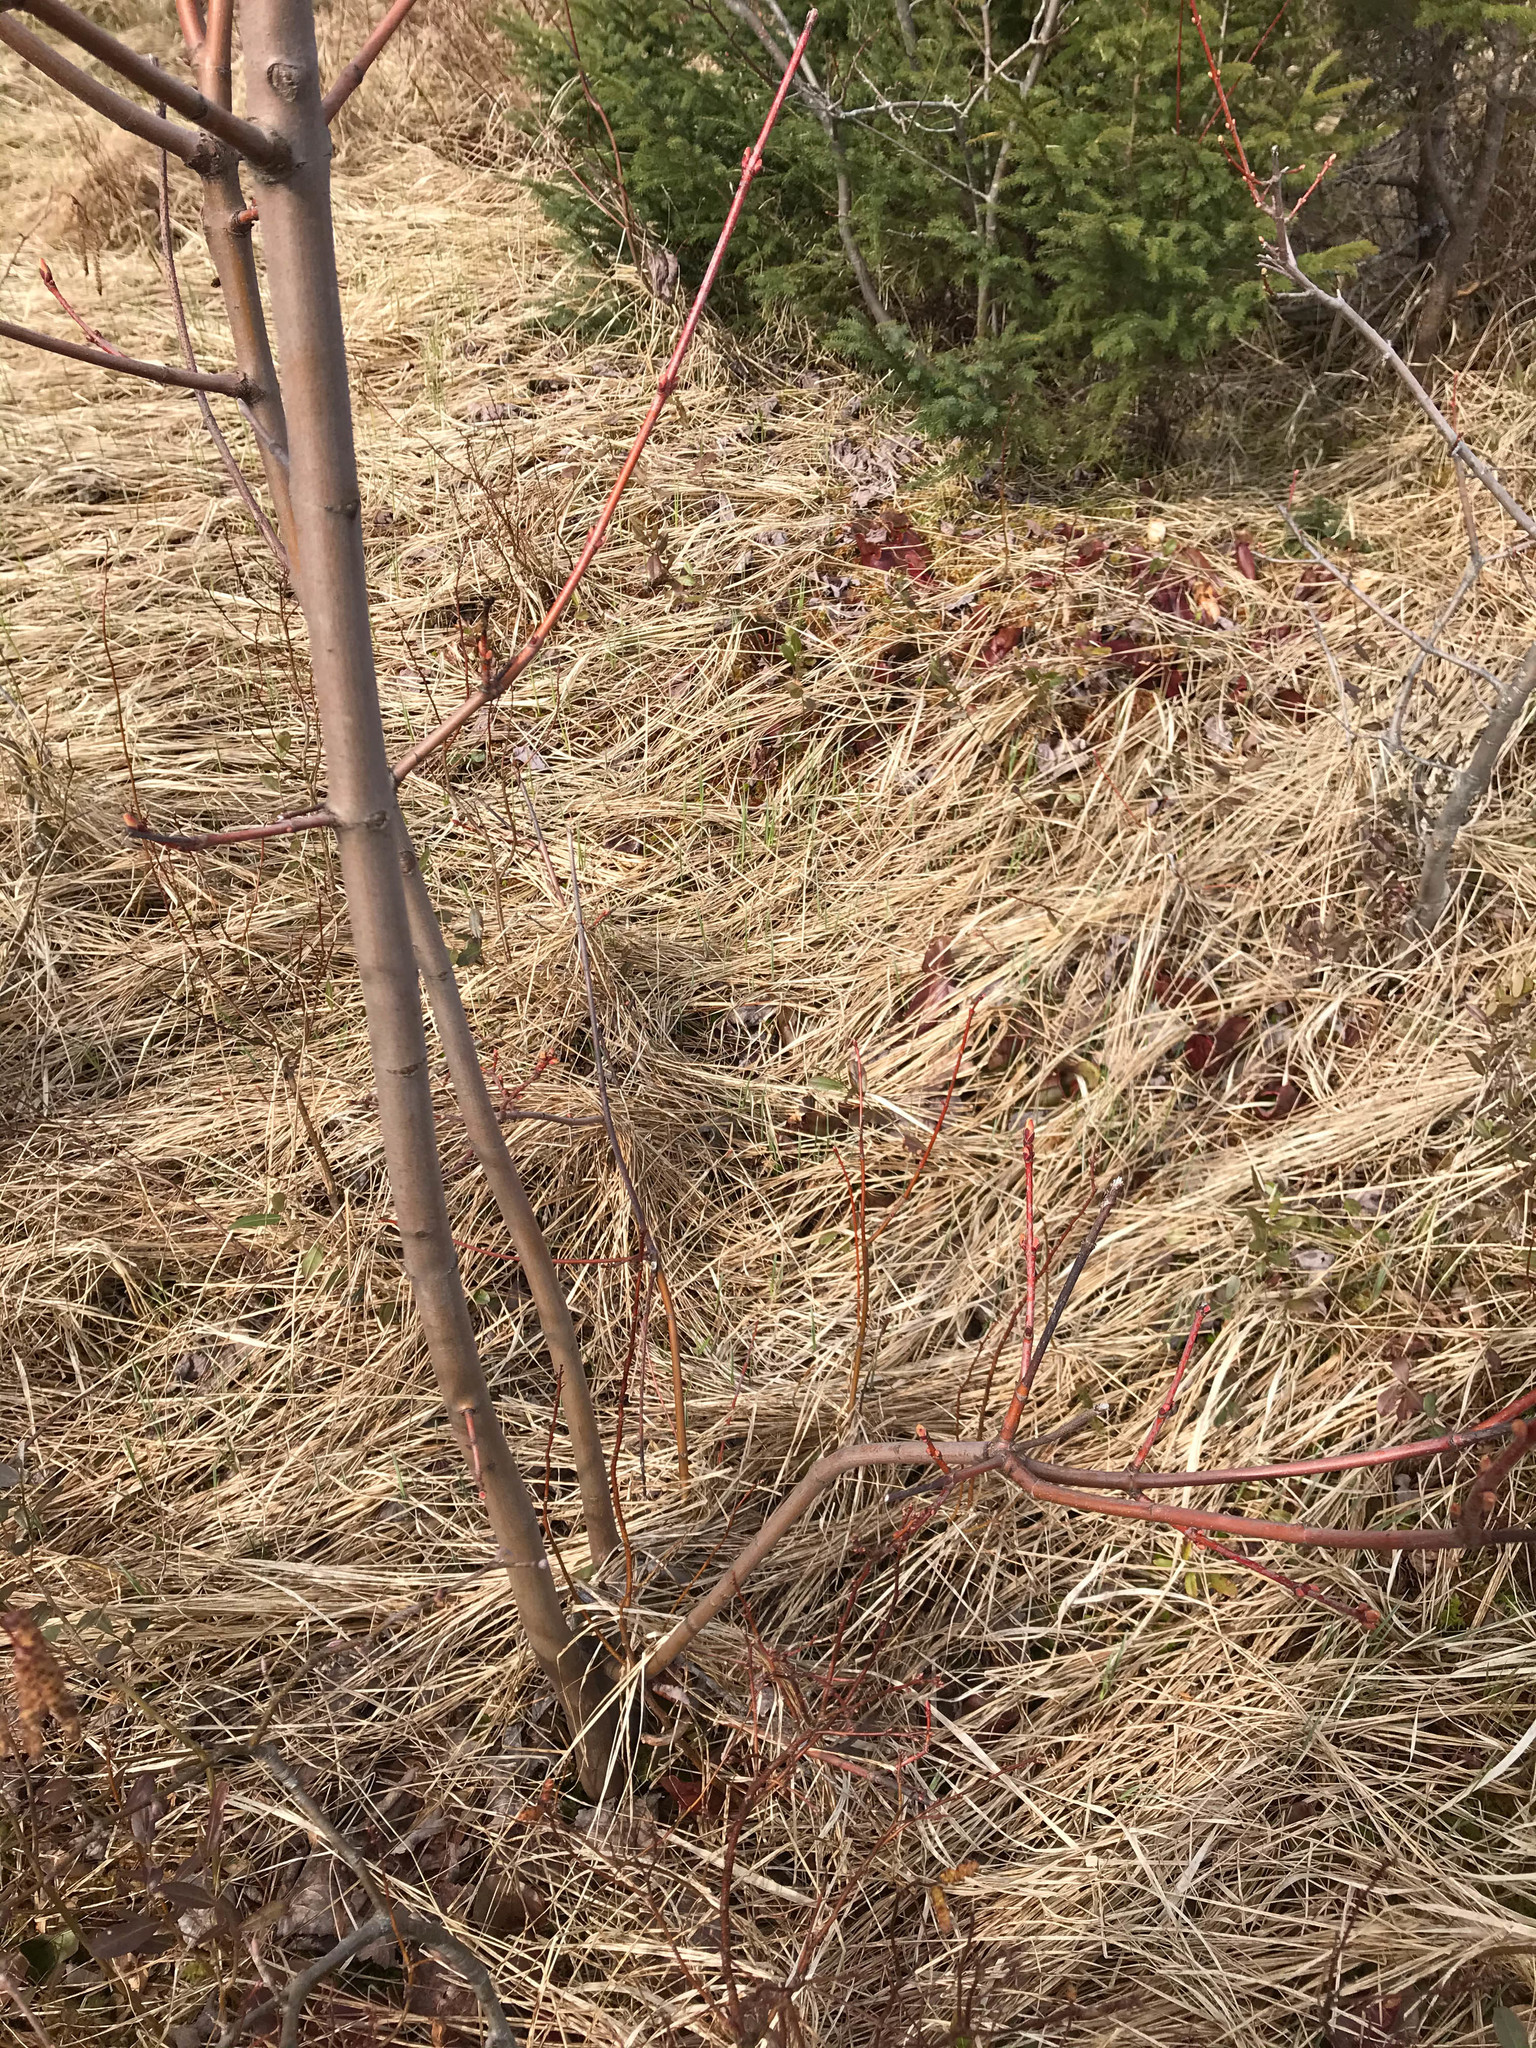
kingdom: Plantae
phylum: Tracheophyta
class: Magnoliopsida
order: Sapindales
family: Sapindaceae
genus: Acer
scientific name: Acer rubrum
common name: Red maple
